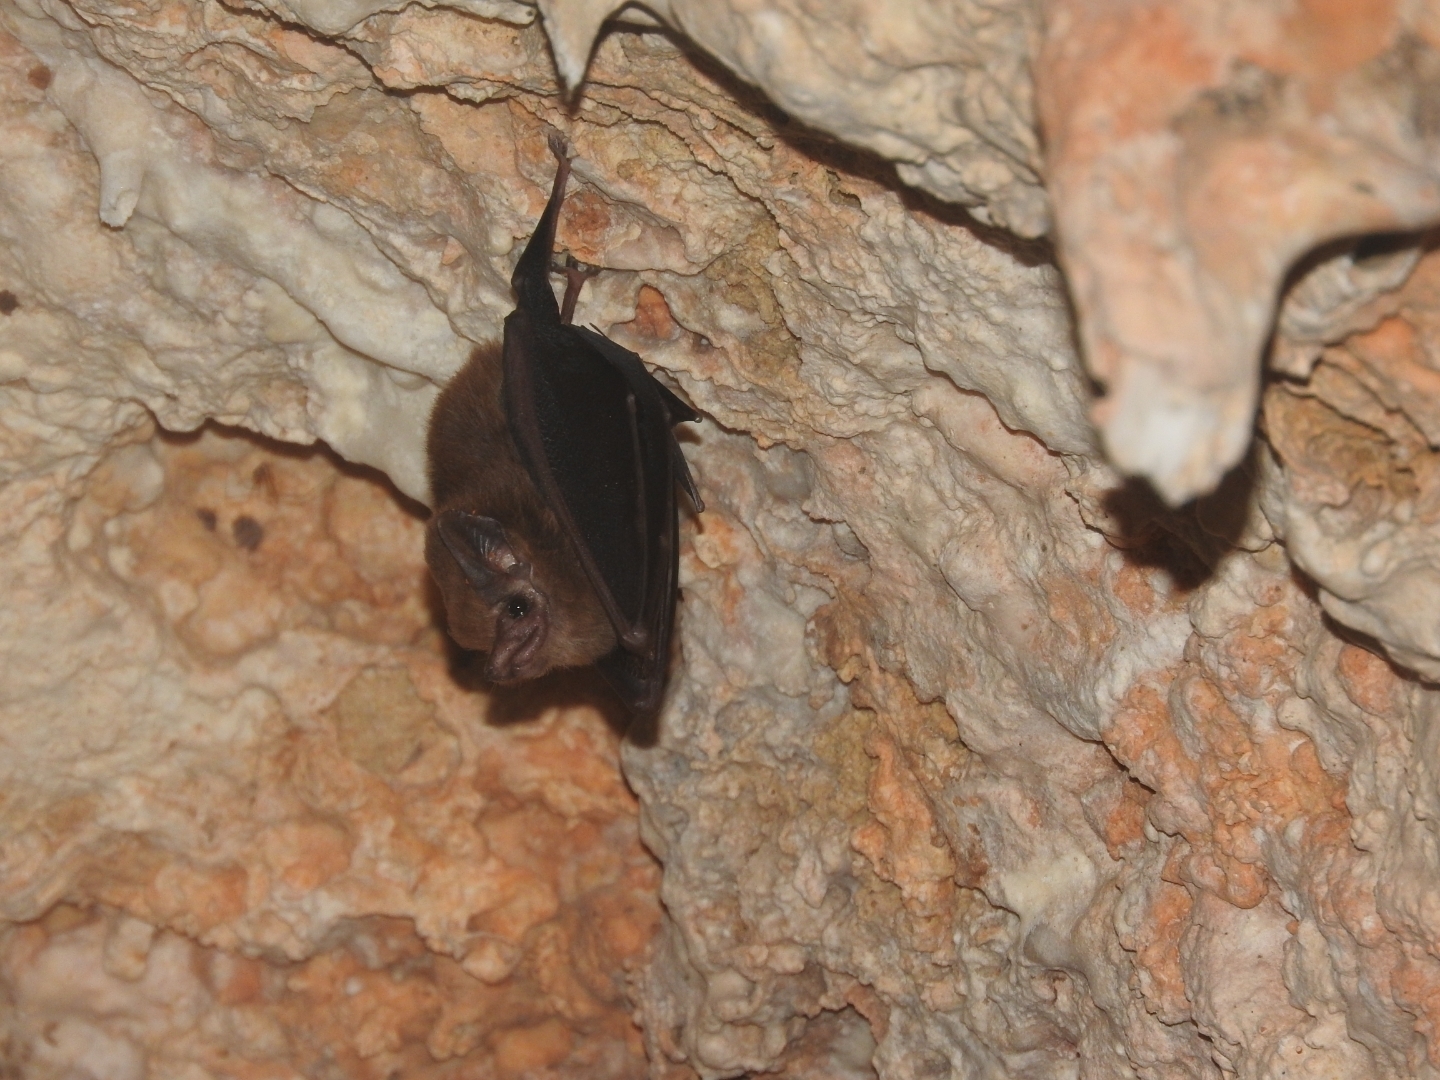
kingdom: Animalia
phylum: Chordata
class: Mammalia
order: Chiroptera
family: Emballonuridae
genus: Peropteryx
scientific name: Peropteryx macrotis
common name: Lesser dog-like bat
